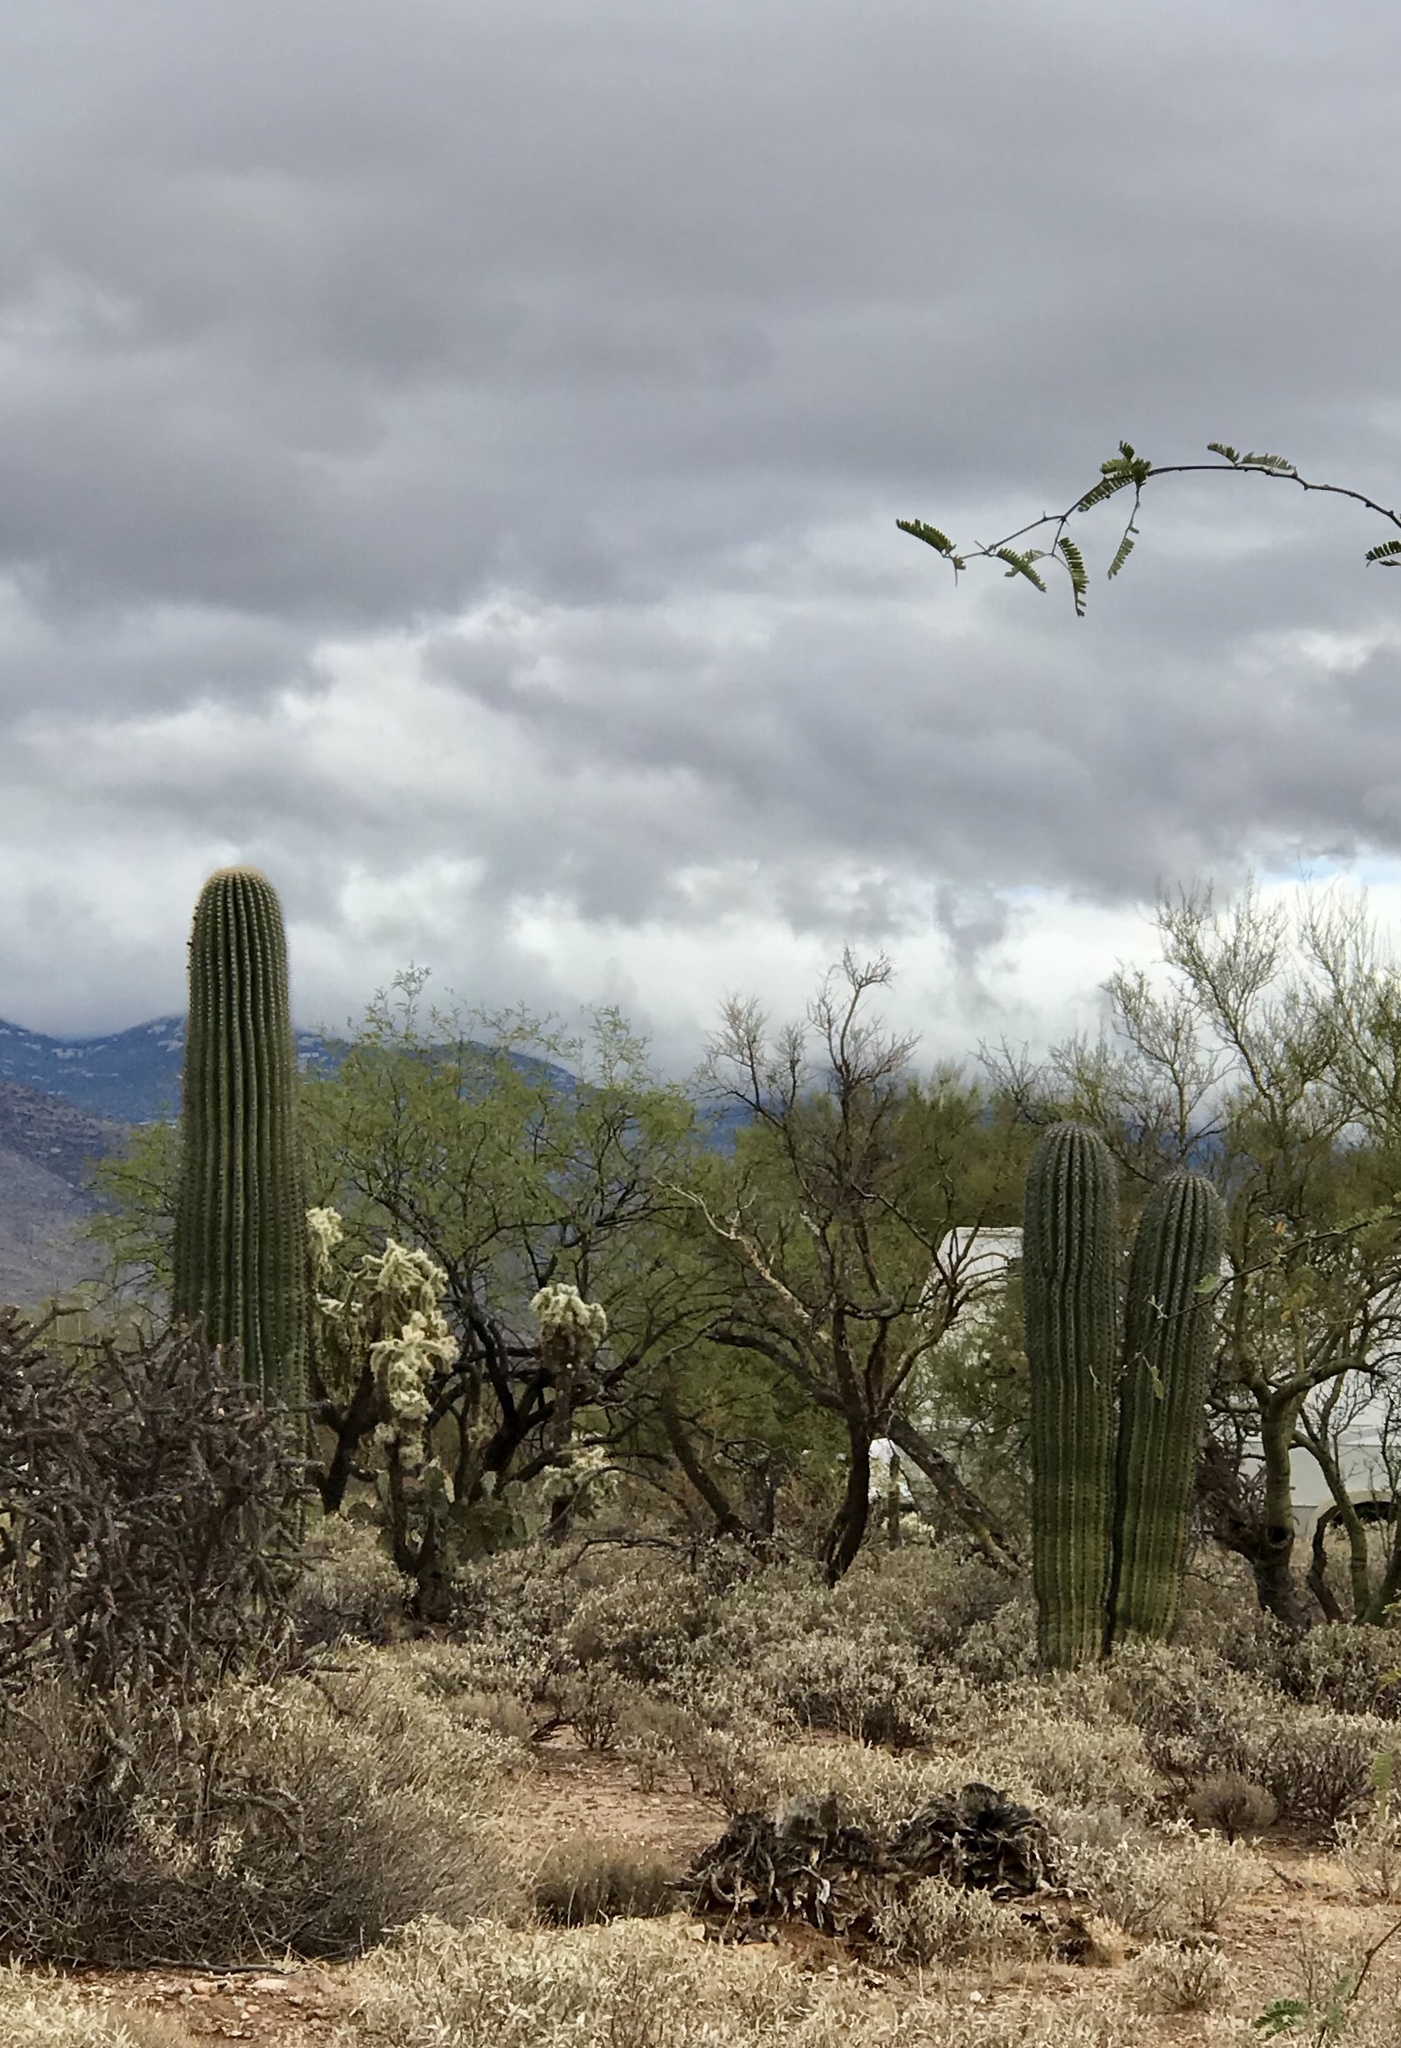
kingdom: Plantae
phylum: Tracheophyta
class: Magnoliopsida
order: Caryophyllales
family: Cactaceae
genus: Carnegiea
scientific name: Carnegiea gigantea
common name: Saguaro
